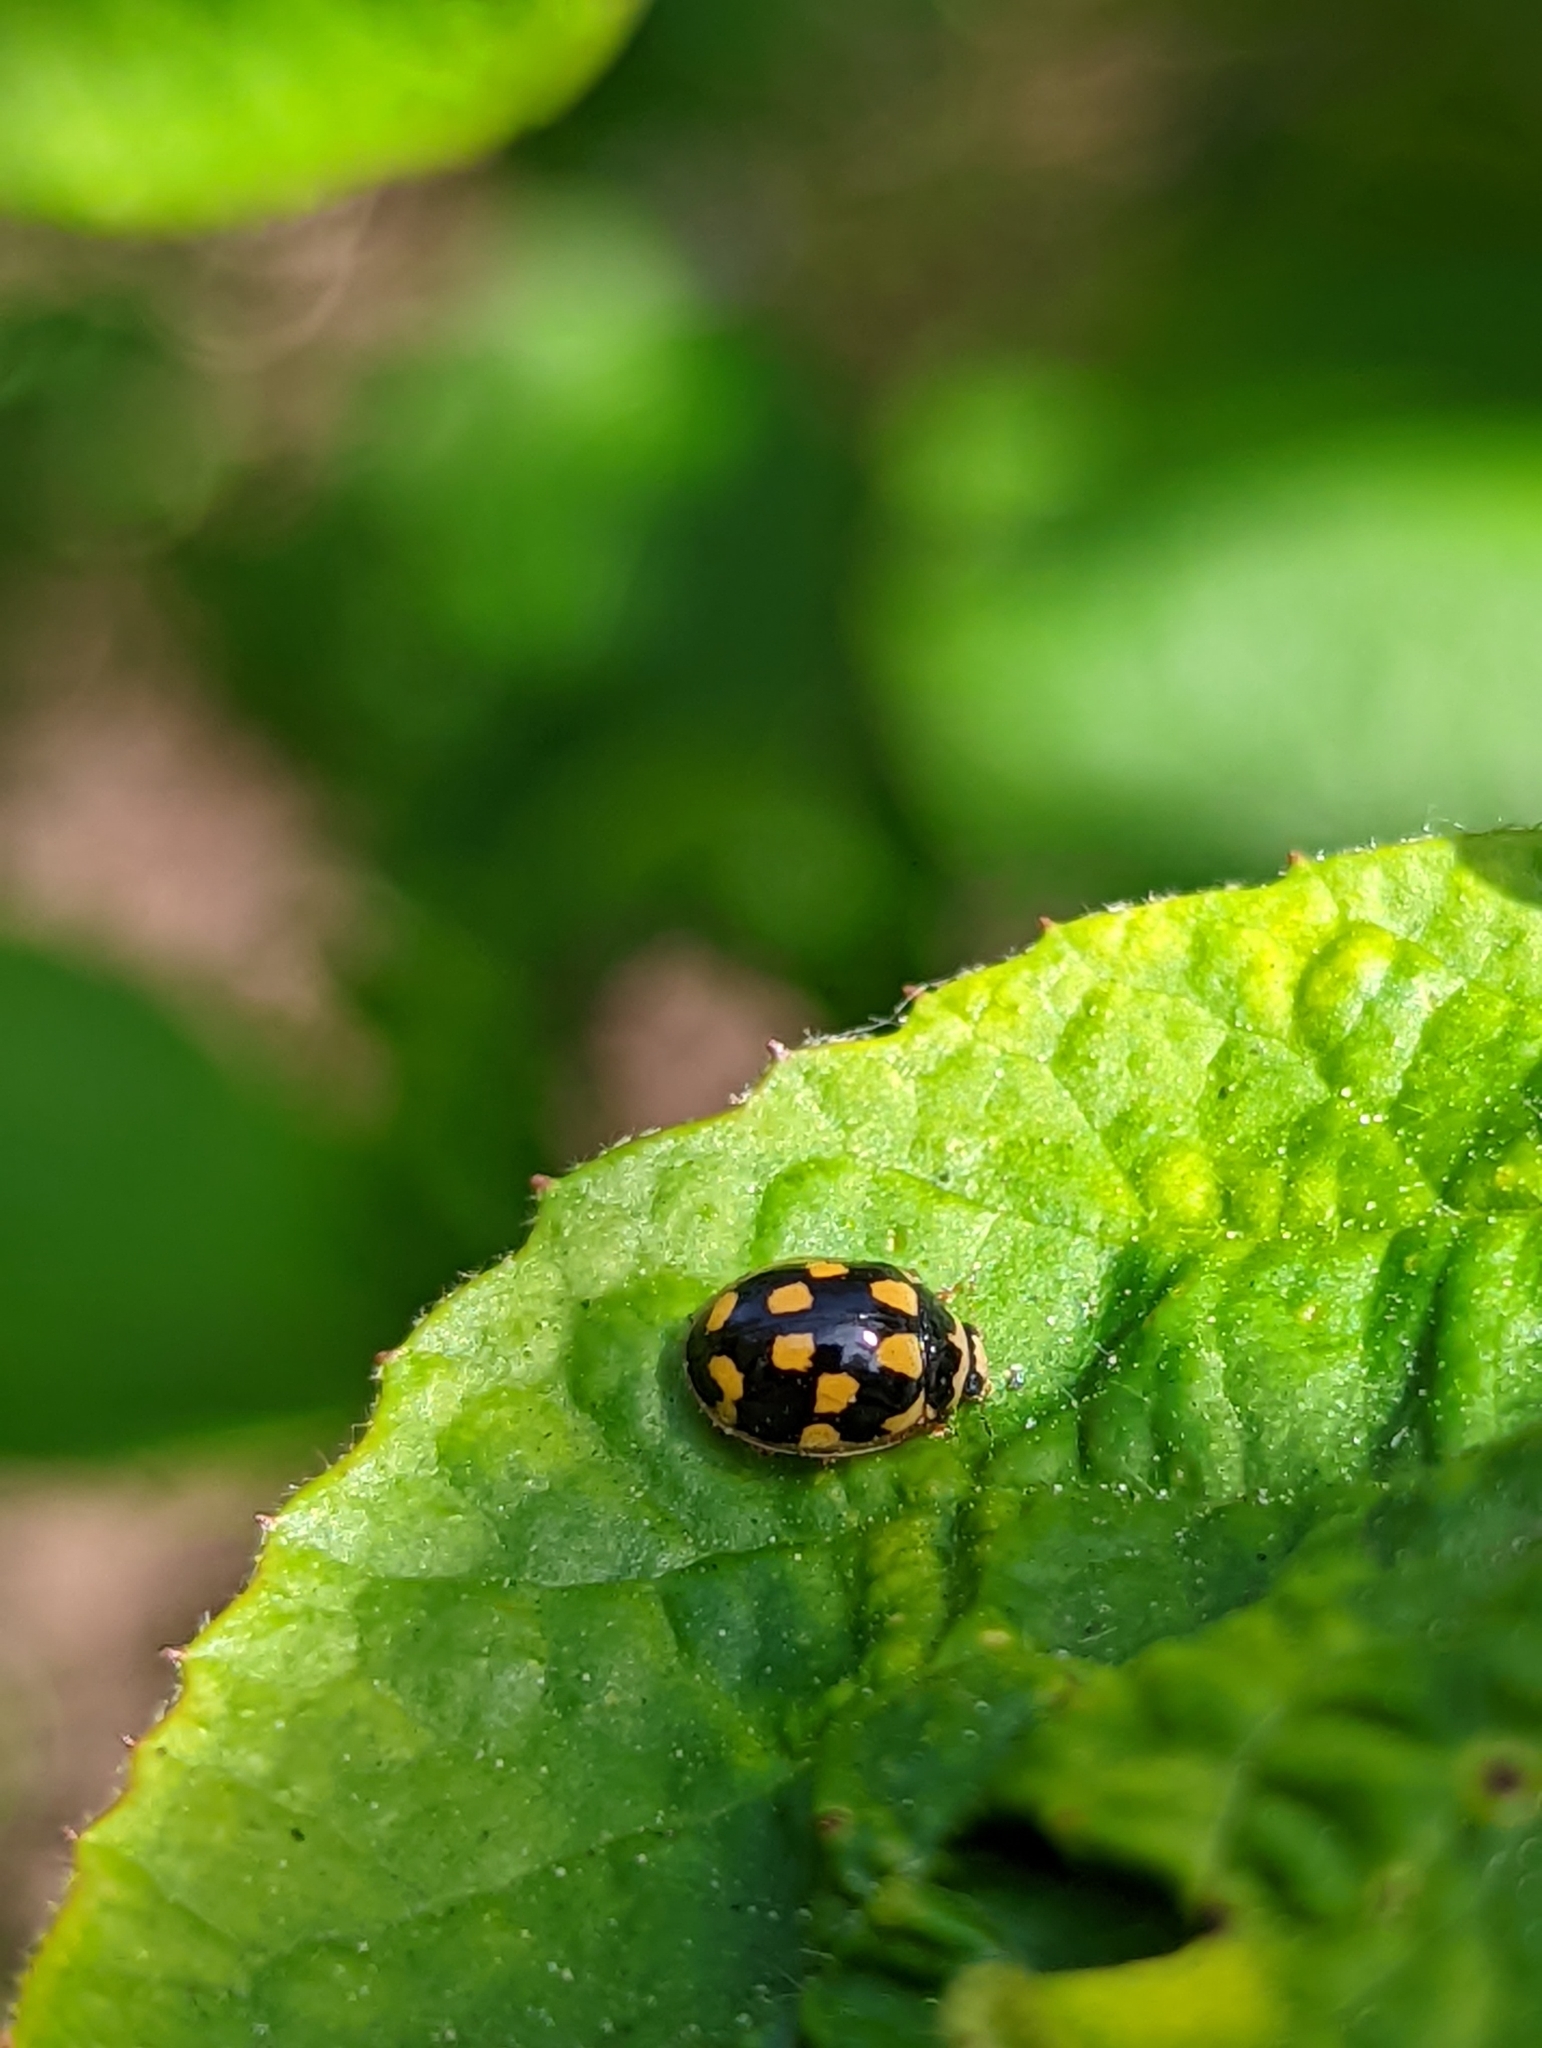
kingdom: Animalia
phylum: Arthropoda
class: Insecta
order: Coleoptera
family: Coccinellidae
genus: Propylaea
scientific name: Propylaea quatuordecimpunctata
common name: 14-spotted ladybird beetle
